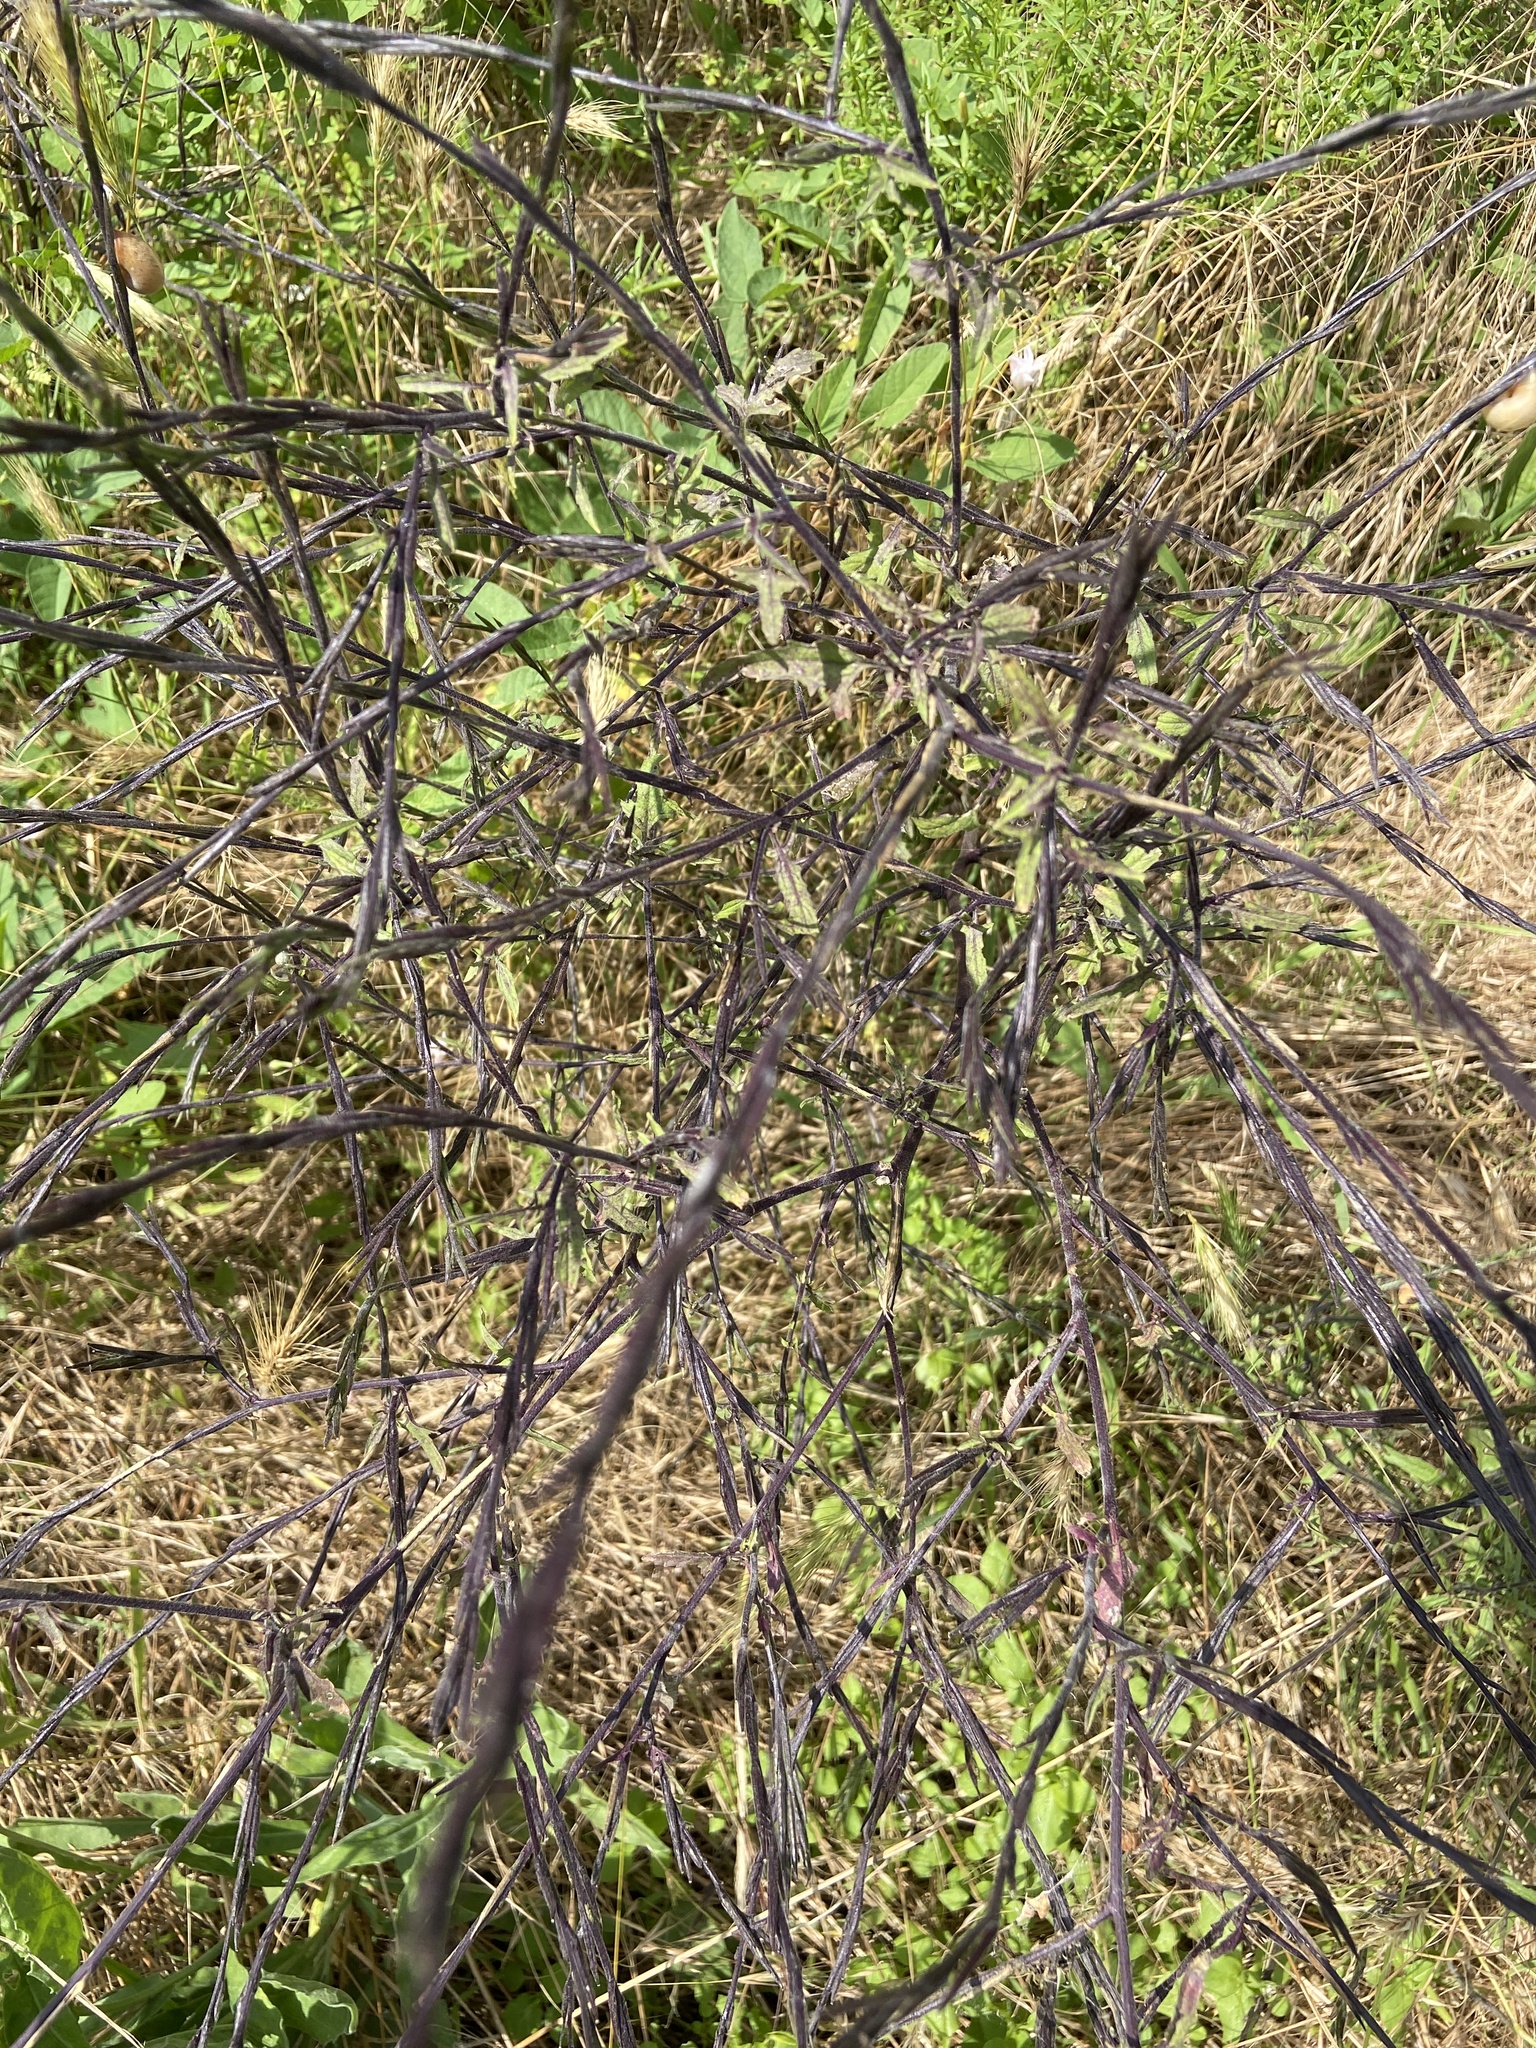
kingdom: Plantae
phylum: Tracheophyta
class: Magnoliopsida
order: Brassicales
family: Brassicaceae
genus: Sisymbrium
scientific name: Sisymbrium officinale
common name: Hedge mustard
